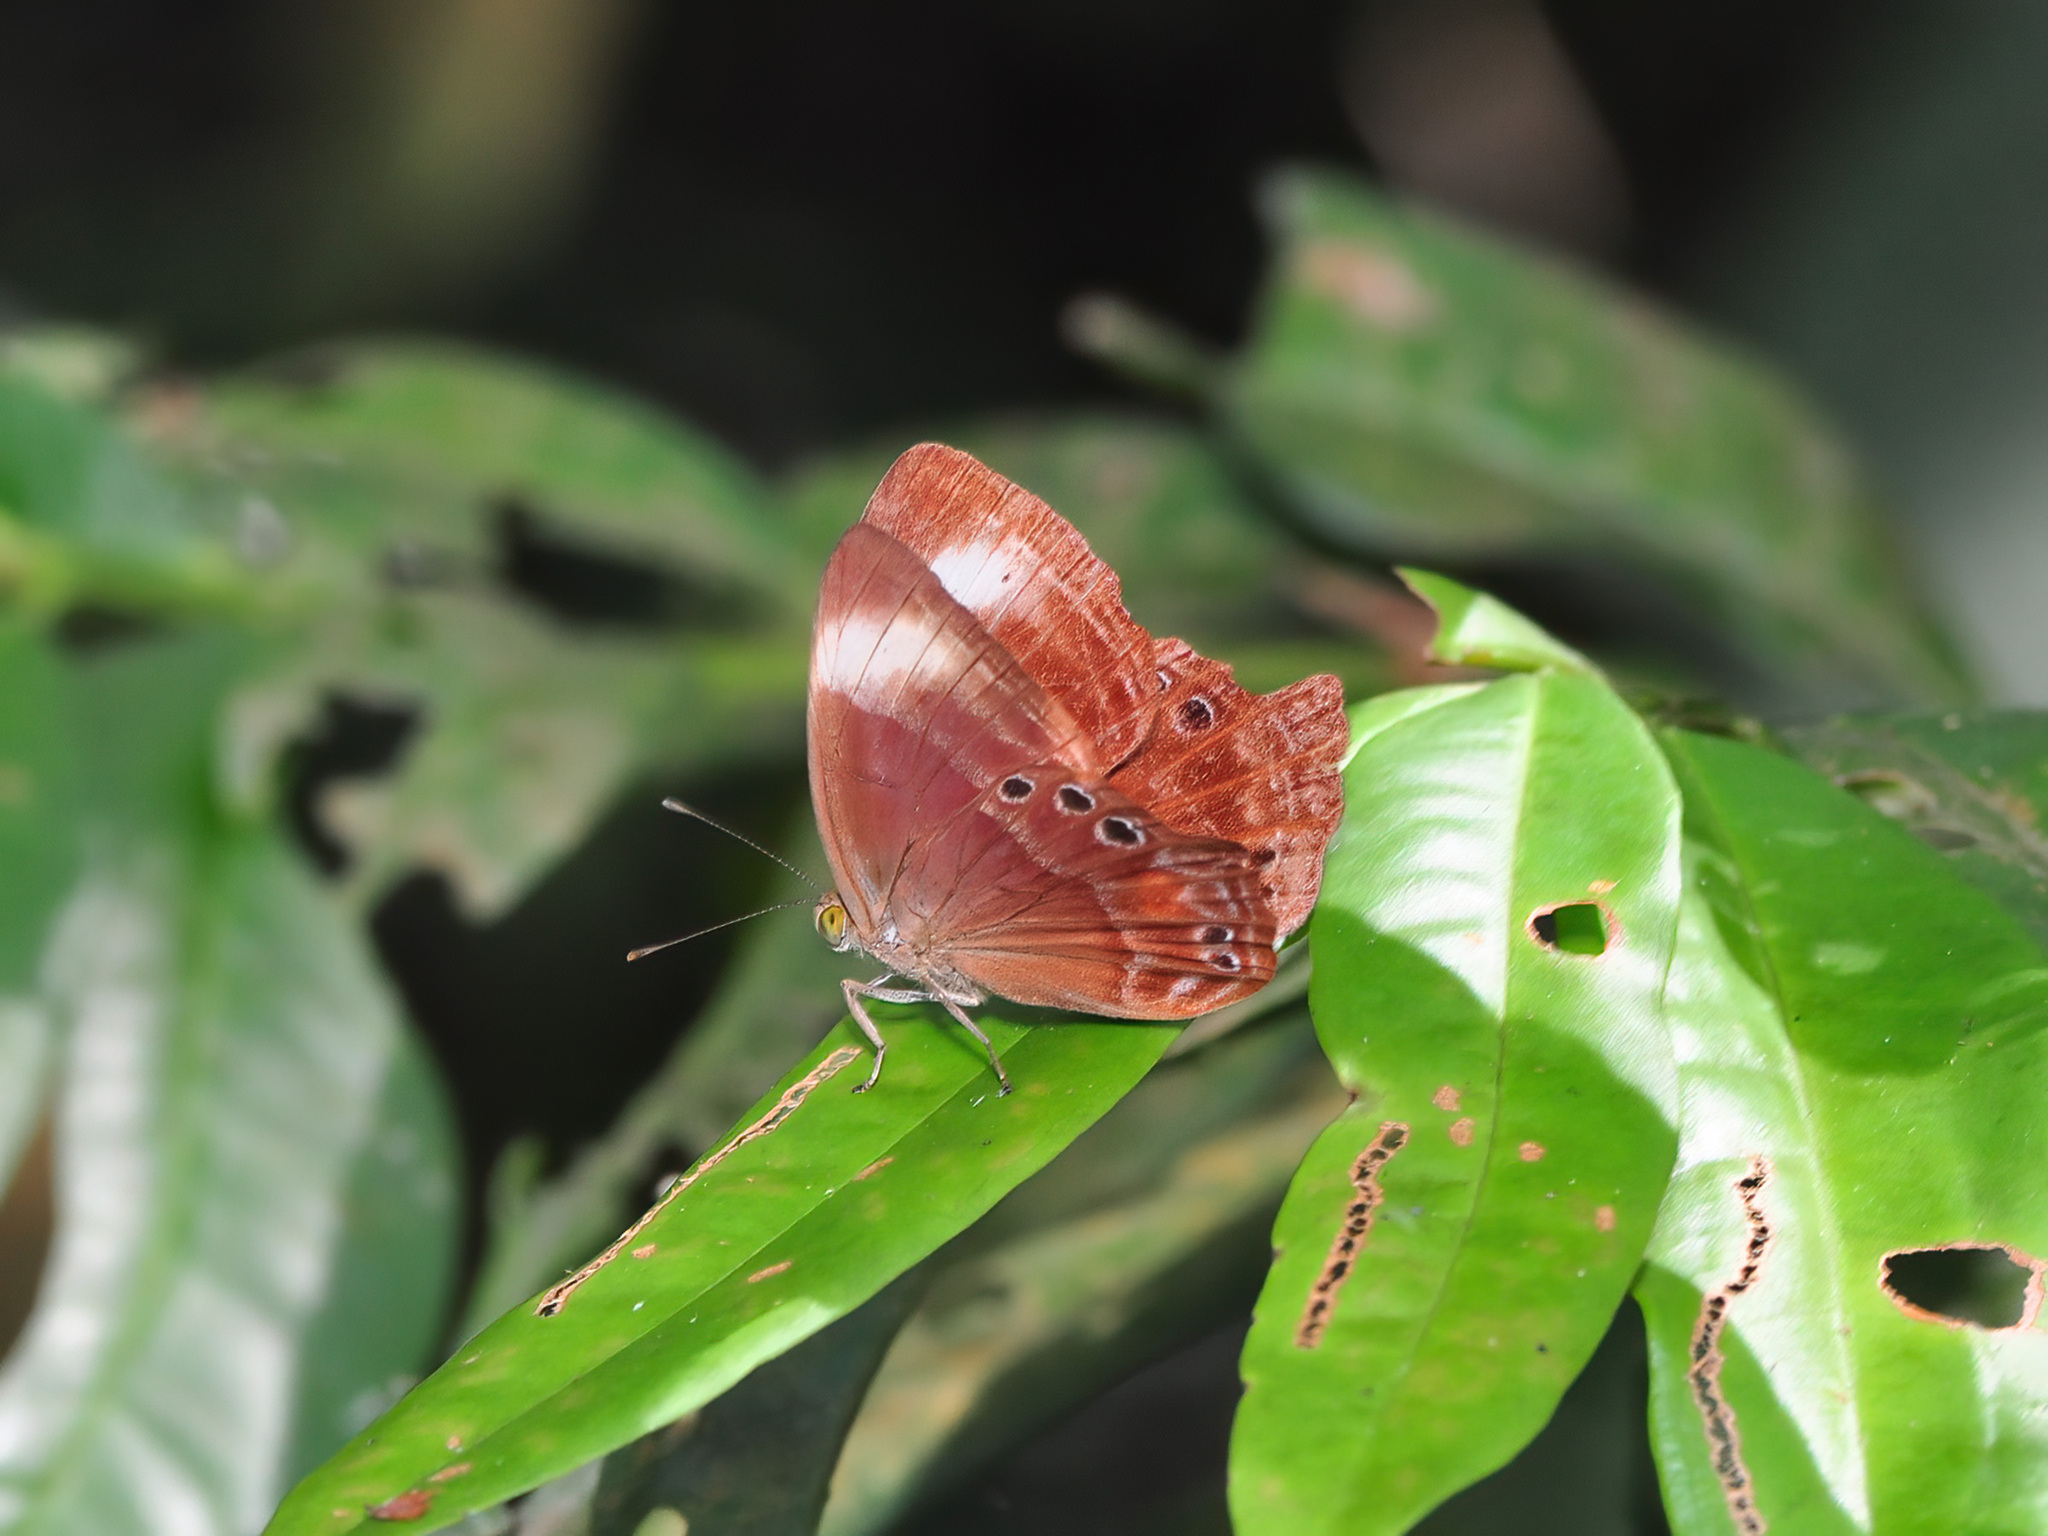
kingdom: Animalia
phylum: Arthropoda
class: Insecta
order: Lepidoptera
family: Lycaenidae
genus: Abisara
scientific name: Abisara geza
